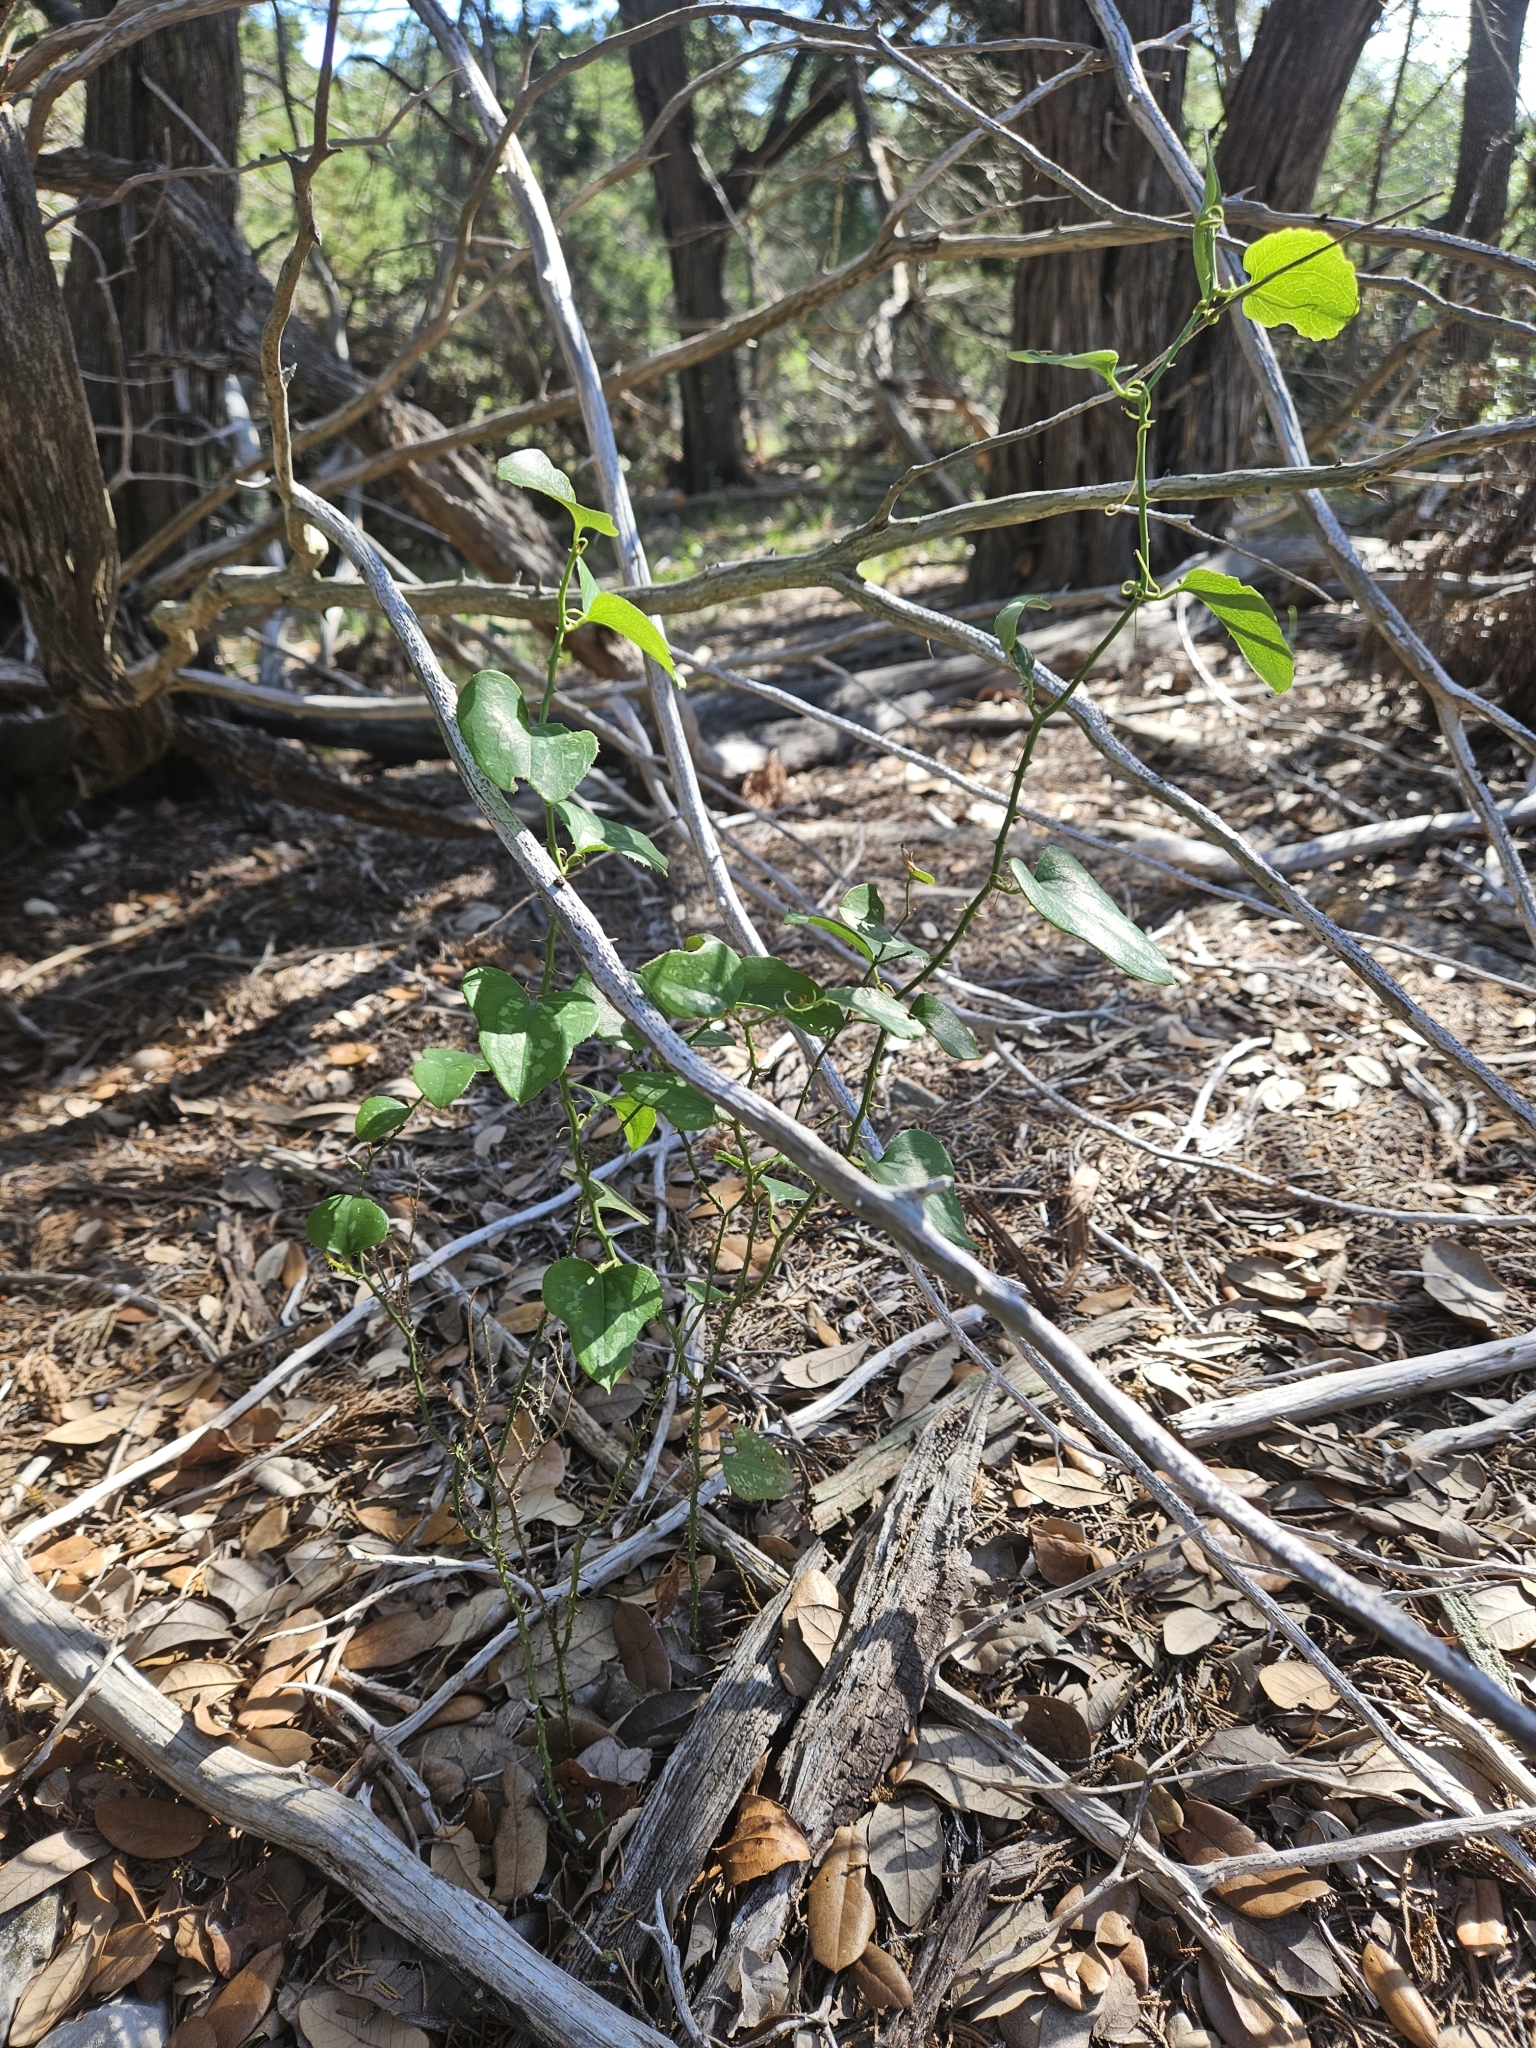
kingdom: Plantae
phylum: Tracheophyta
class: Liliopsida
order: Liliales
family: Smilacaceae
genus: Smilax
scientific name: Smilax bona-nox
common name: Catbrier
